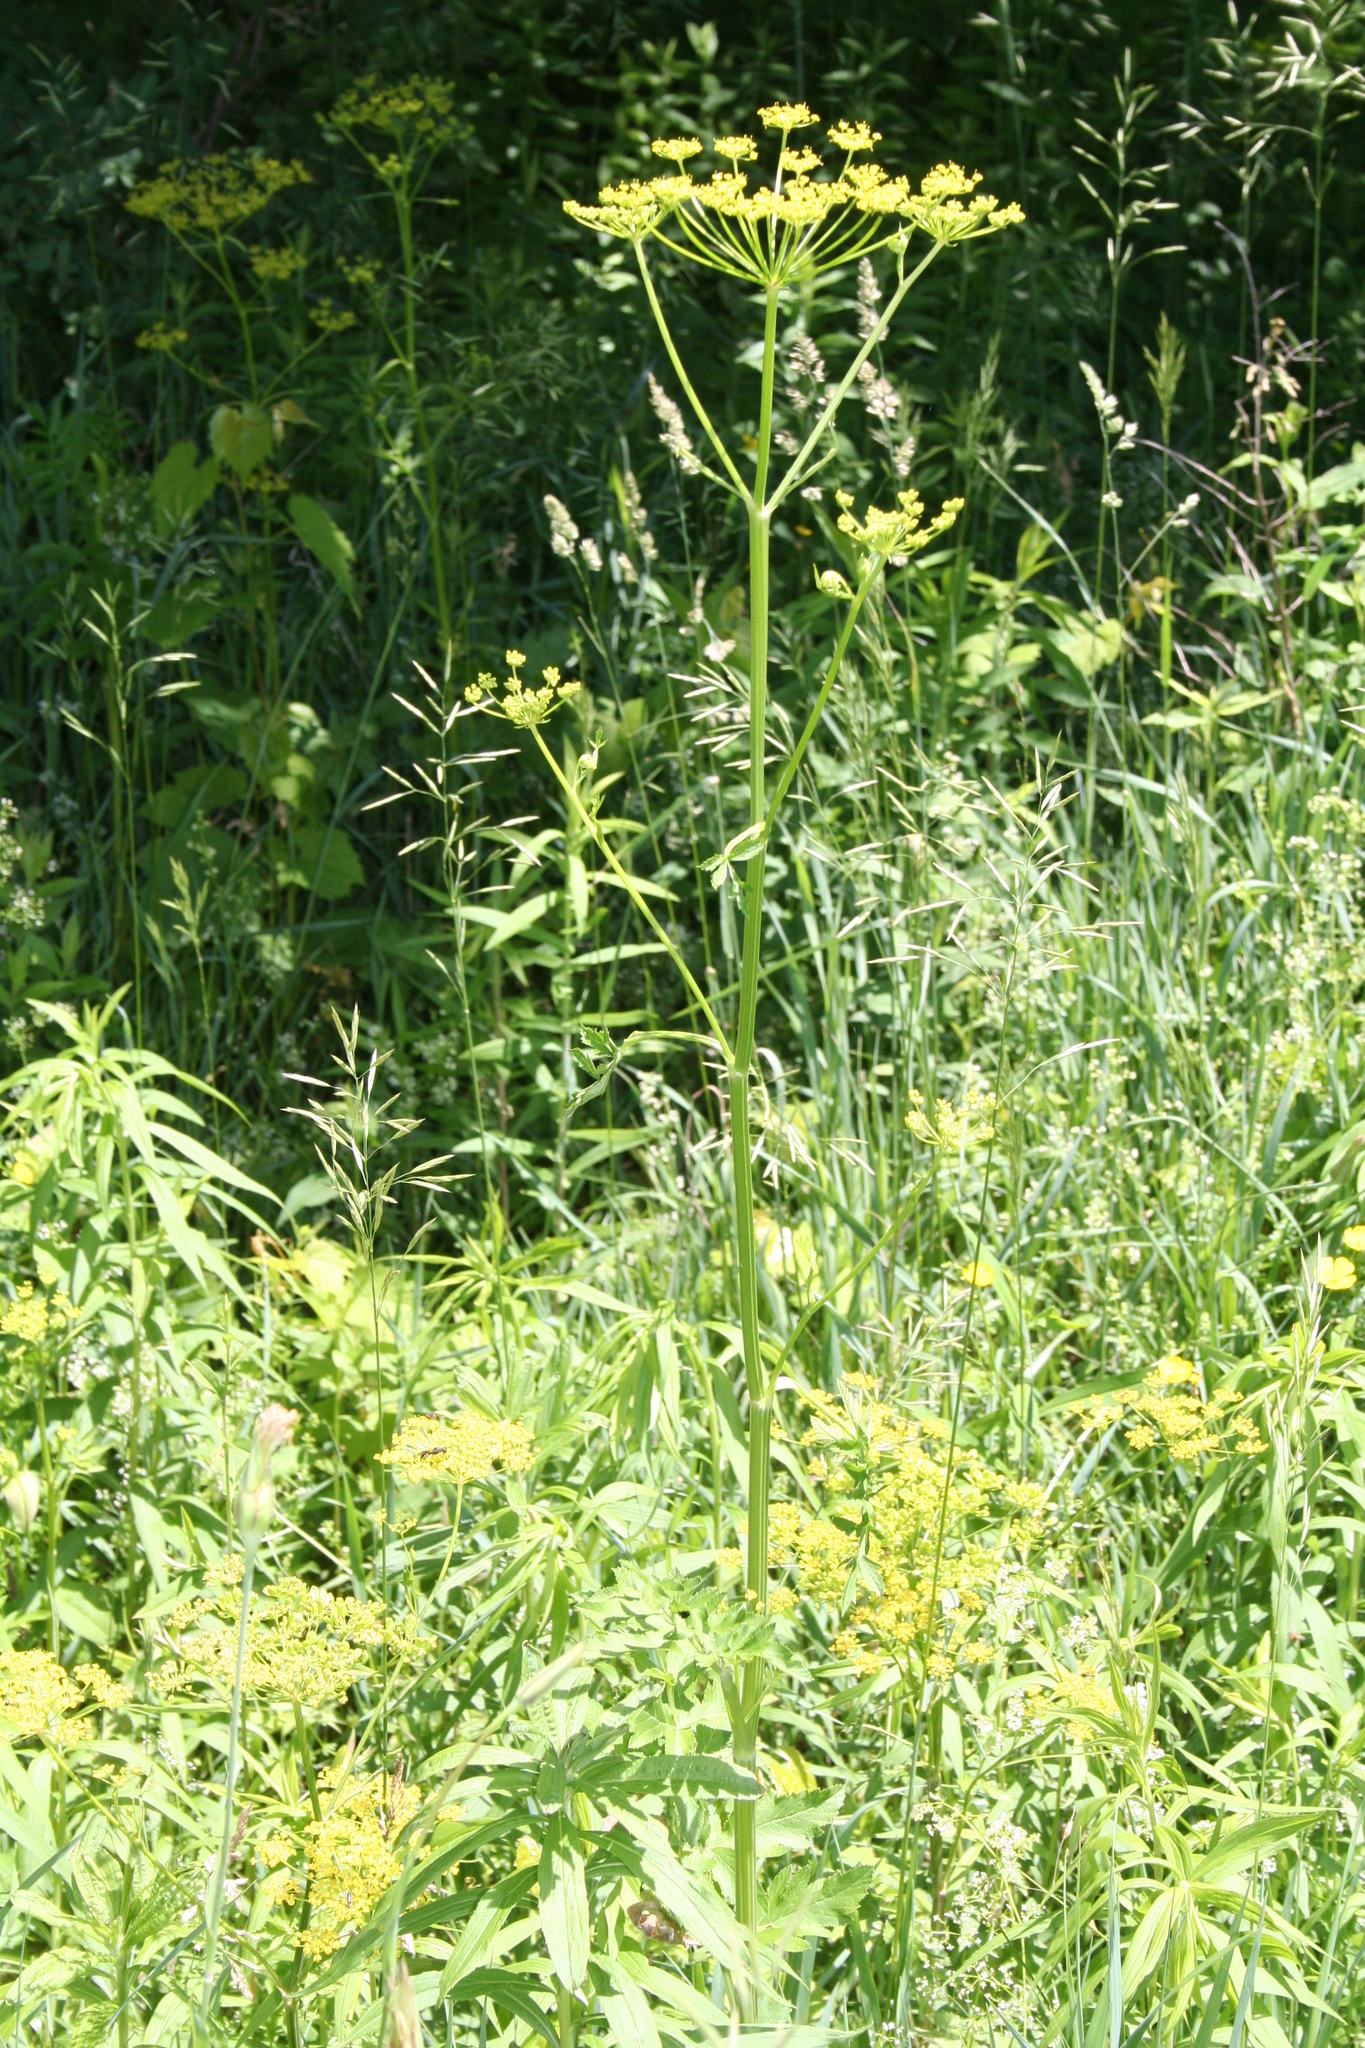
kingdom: Plantae
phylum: Tracheophyta
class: Magnoliopsida
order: Apiales
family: Apiaceae
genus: Pastinaca
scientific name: Pastinaca sativa
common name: Wild parsnip
